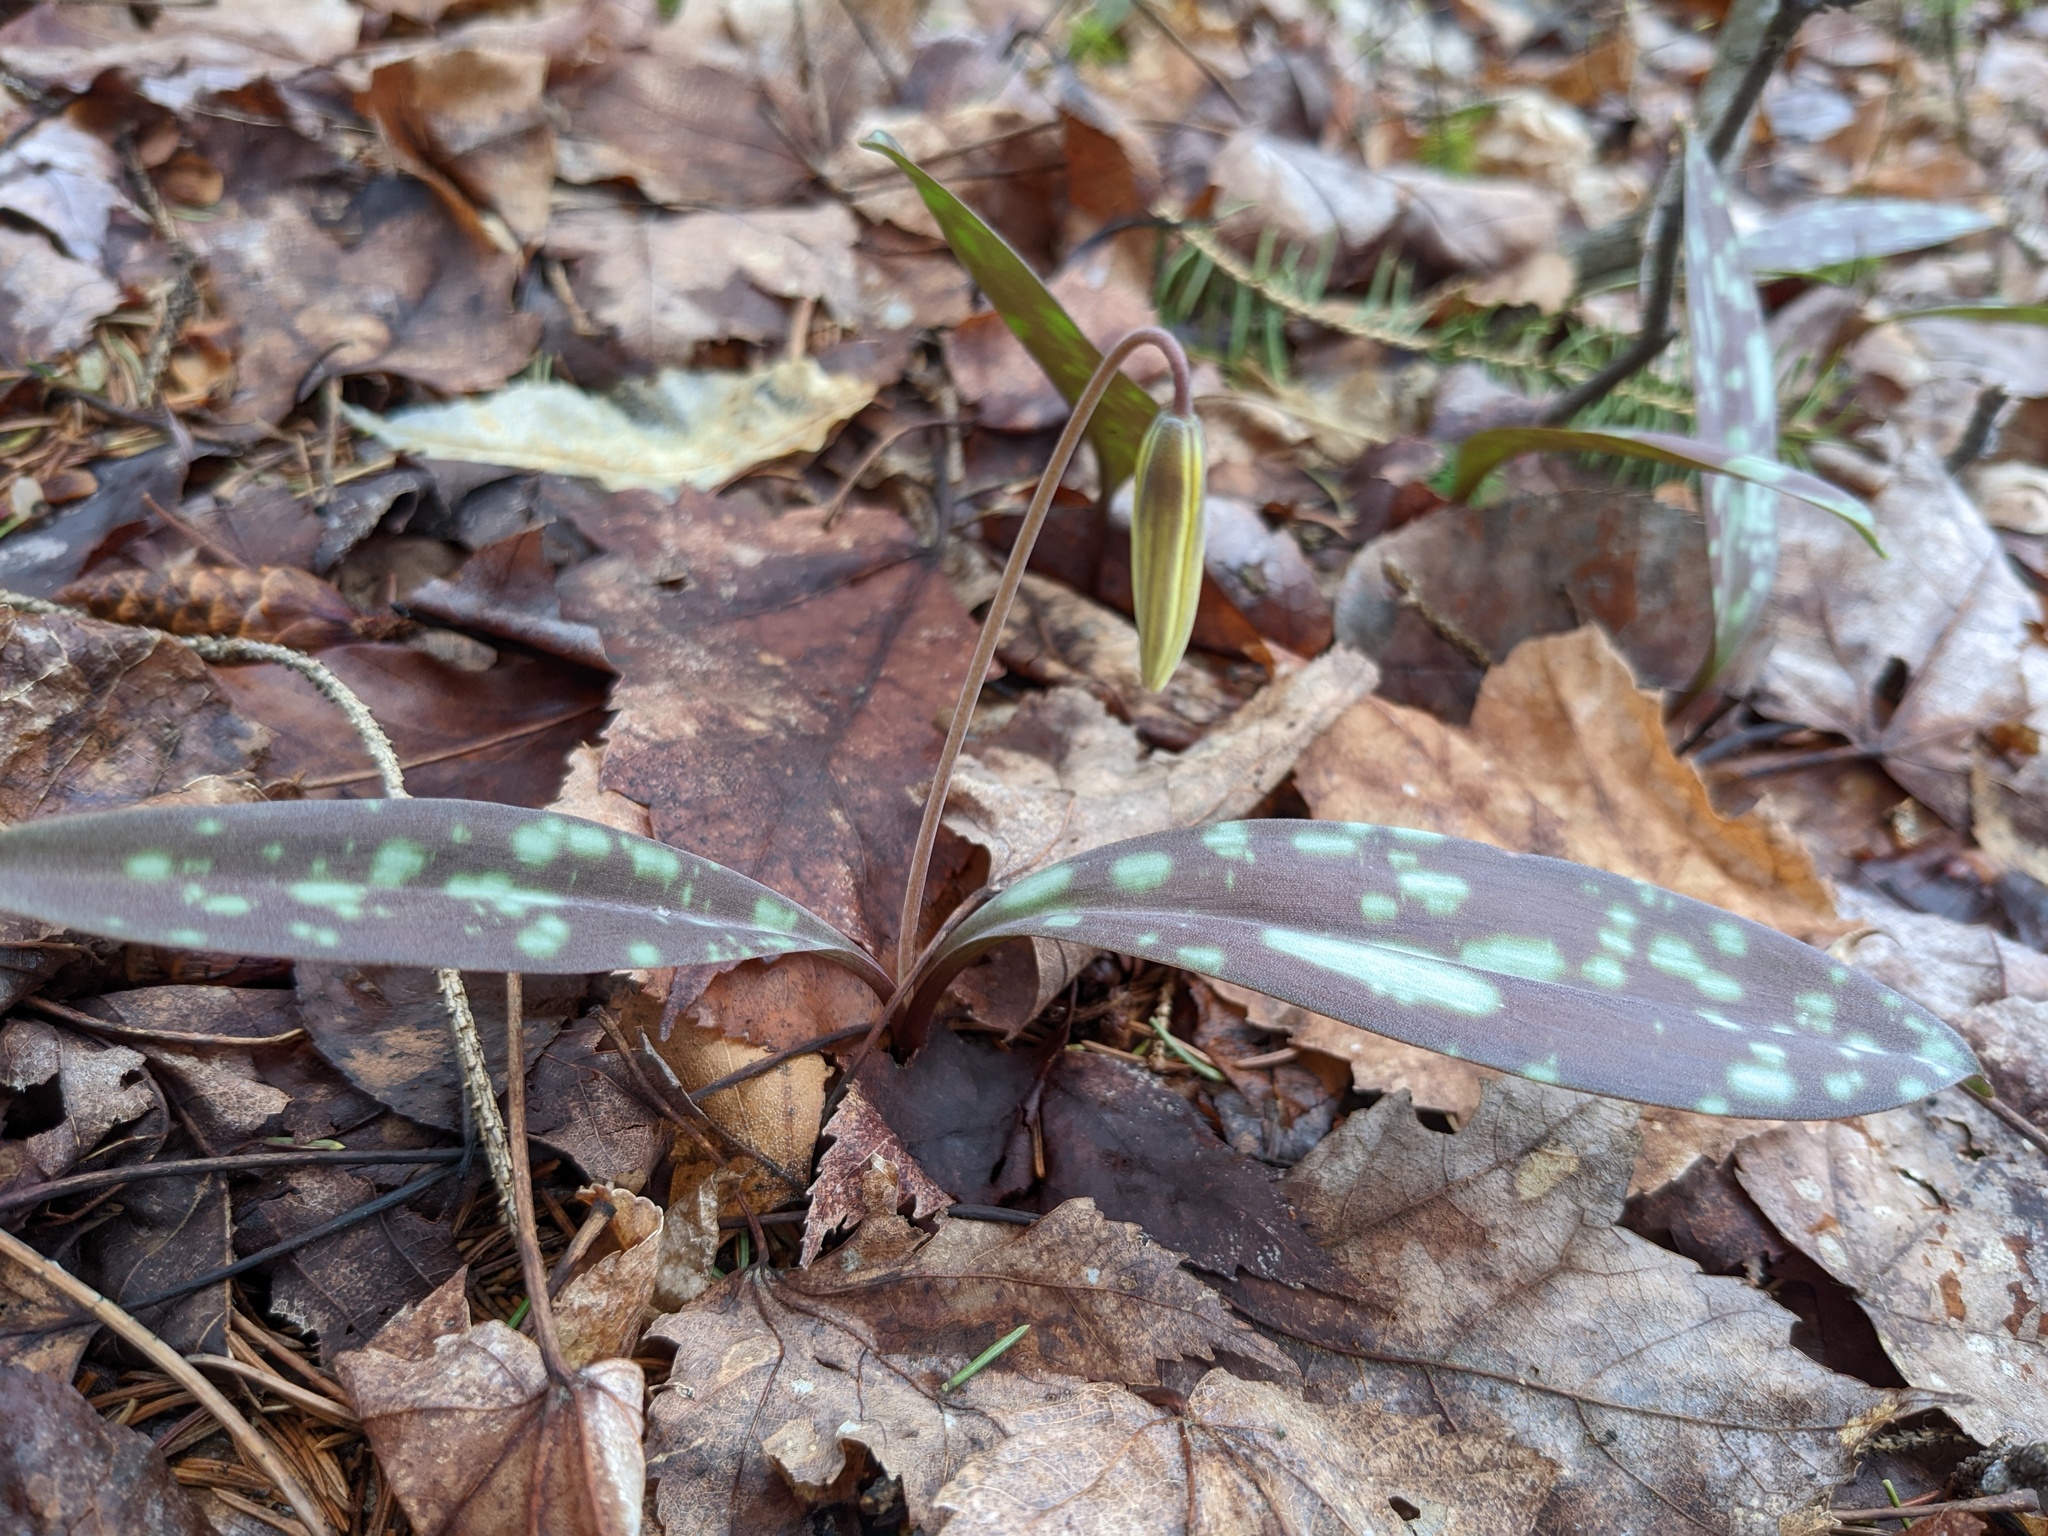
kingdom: Plantae
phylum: Tracheophyta
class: Liliopsida
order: Liliales
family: Liliaceae
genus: Erythronium
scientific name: Erythronium americanum
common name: Yellow adder's-tongue
